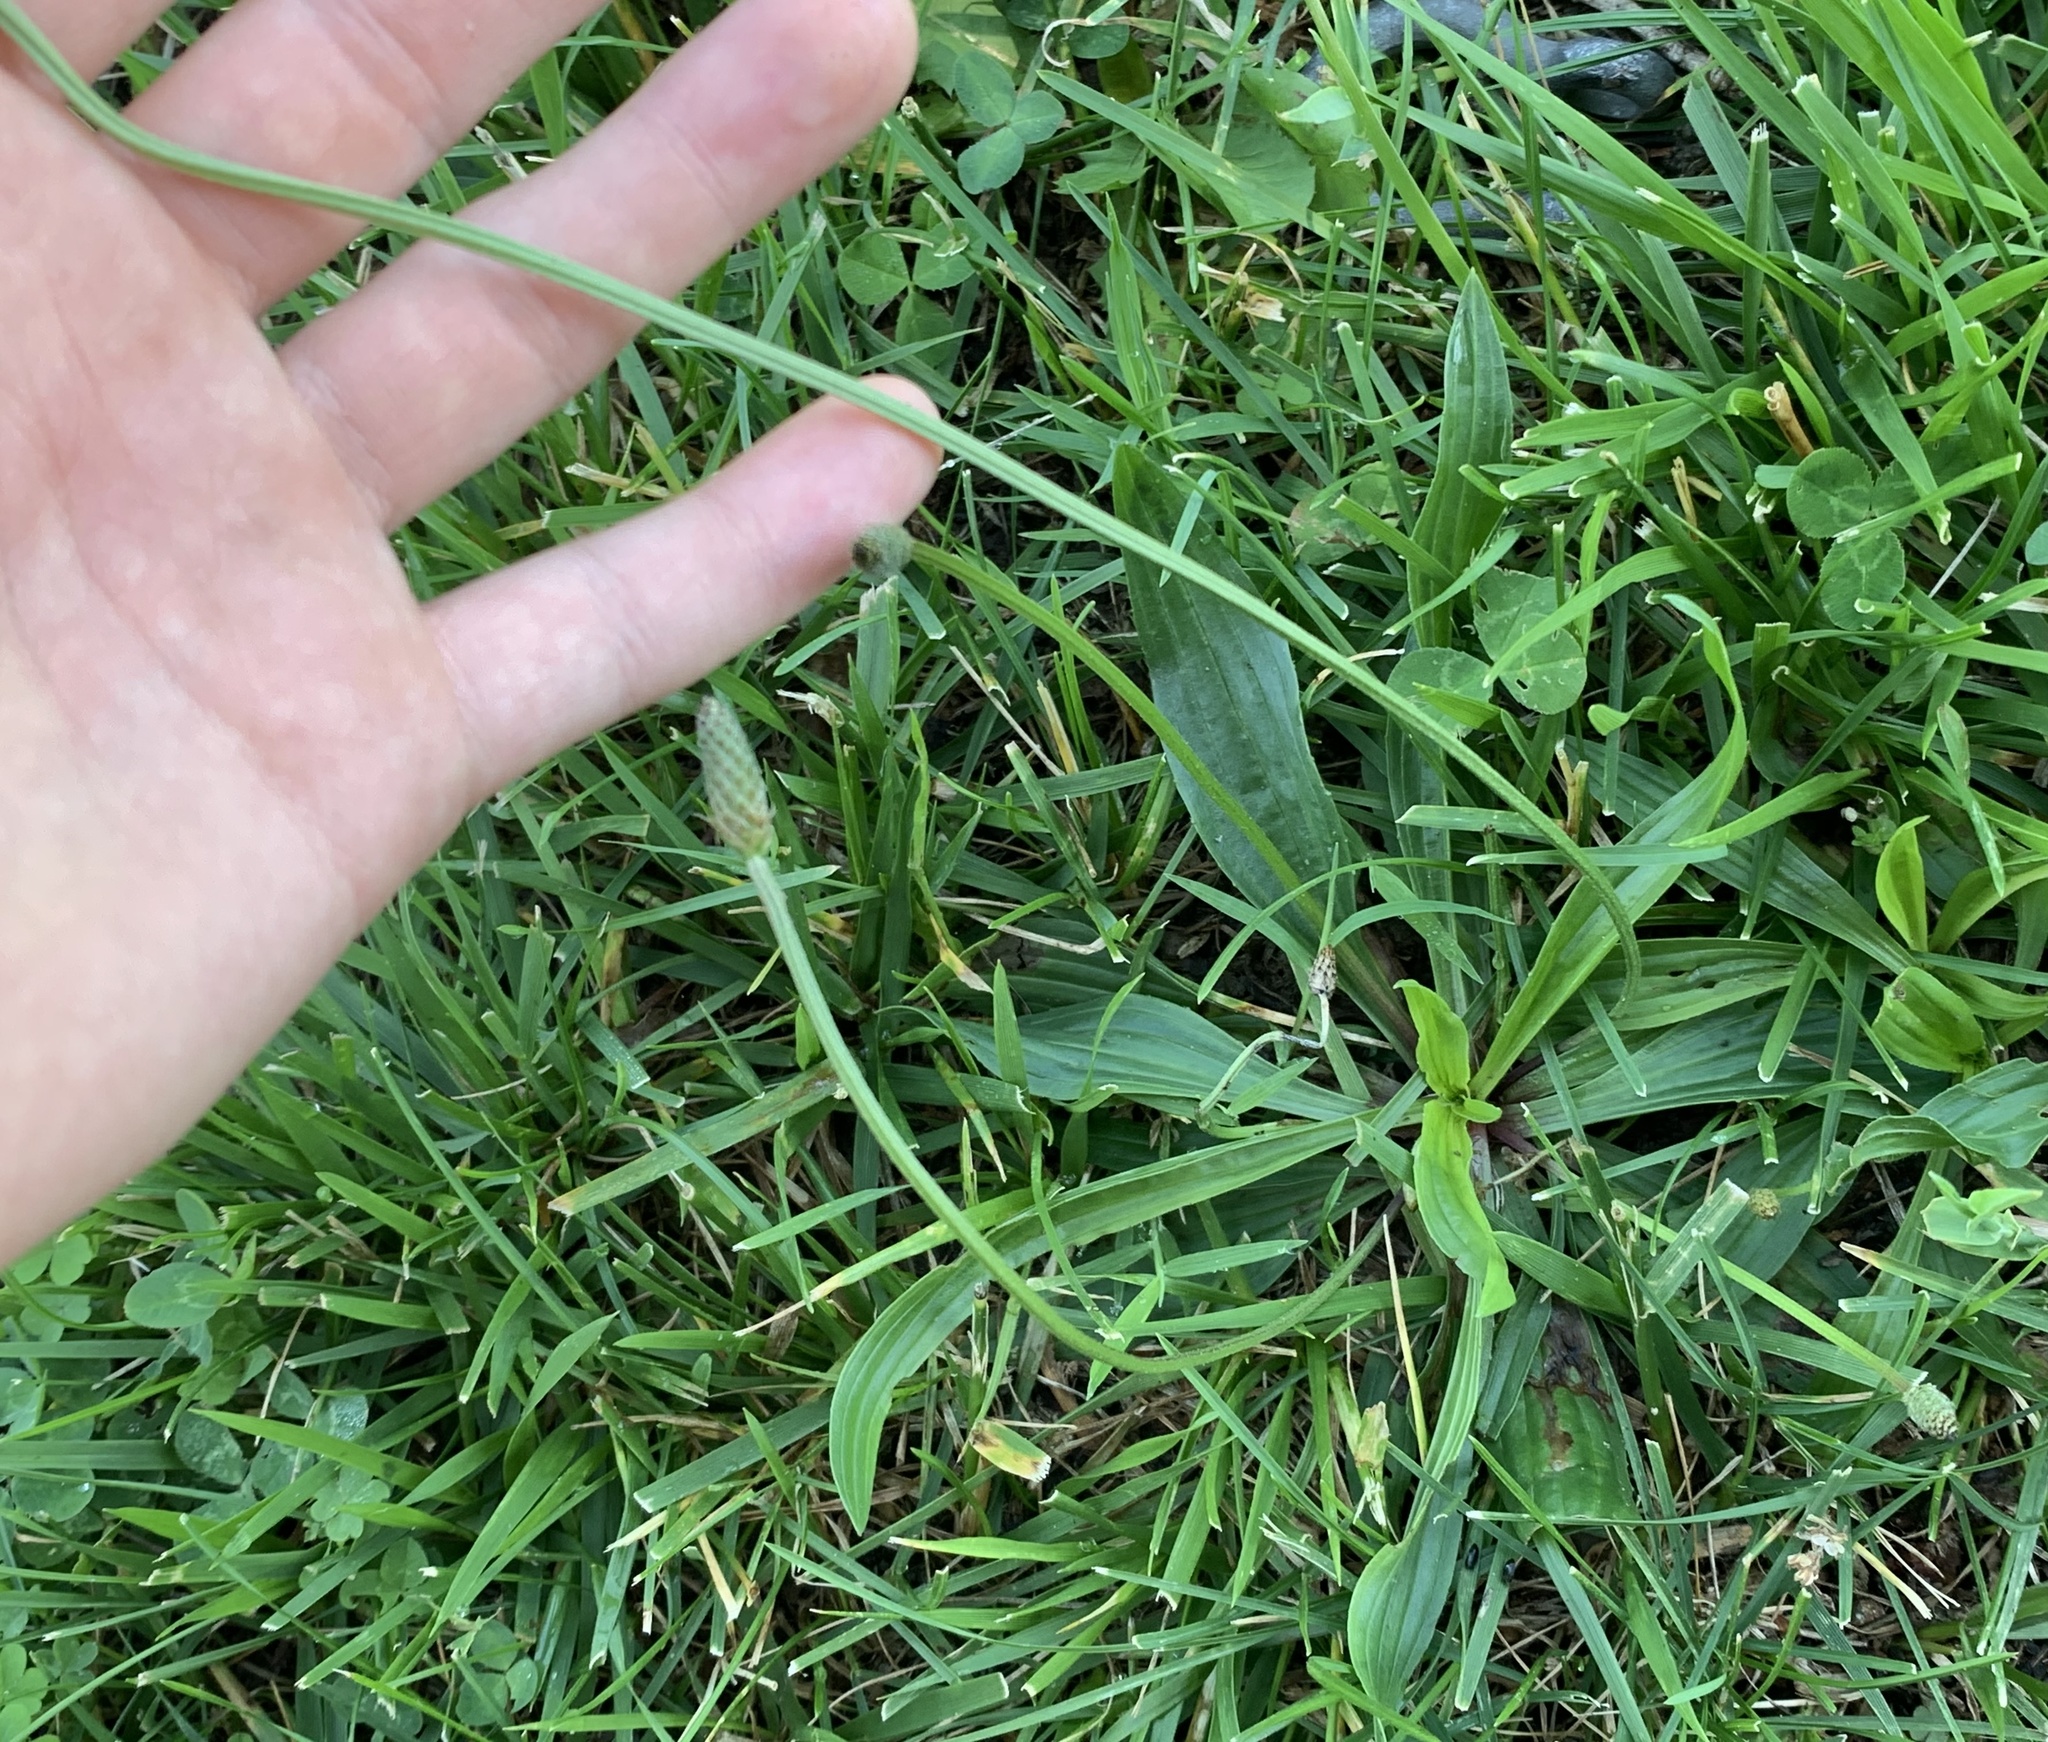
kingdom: Plantae
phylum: Tracheophyta
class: Magnoliopsida
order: Lamiales
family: Plantaginaceae
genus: Plantago
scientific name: Plantago lanceolata
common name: Ribwort plantain
